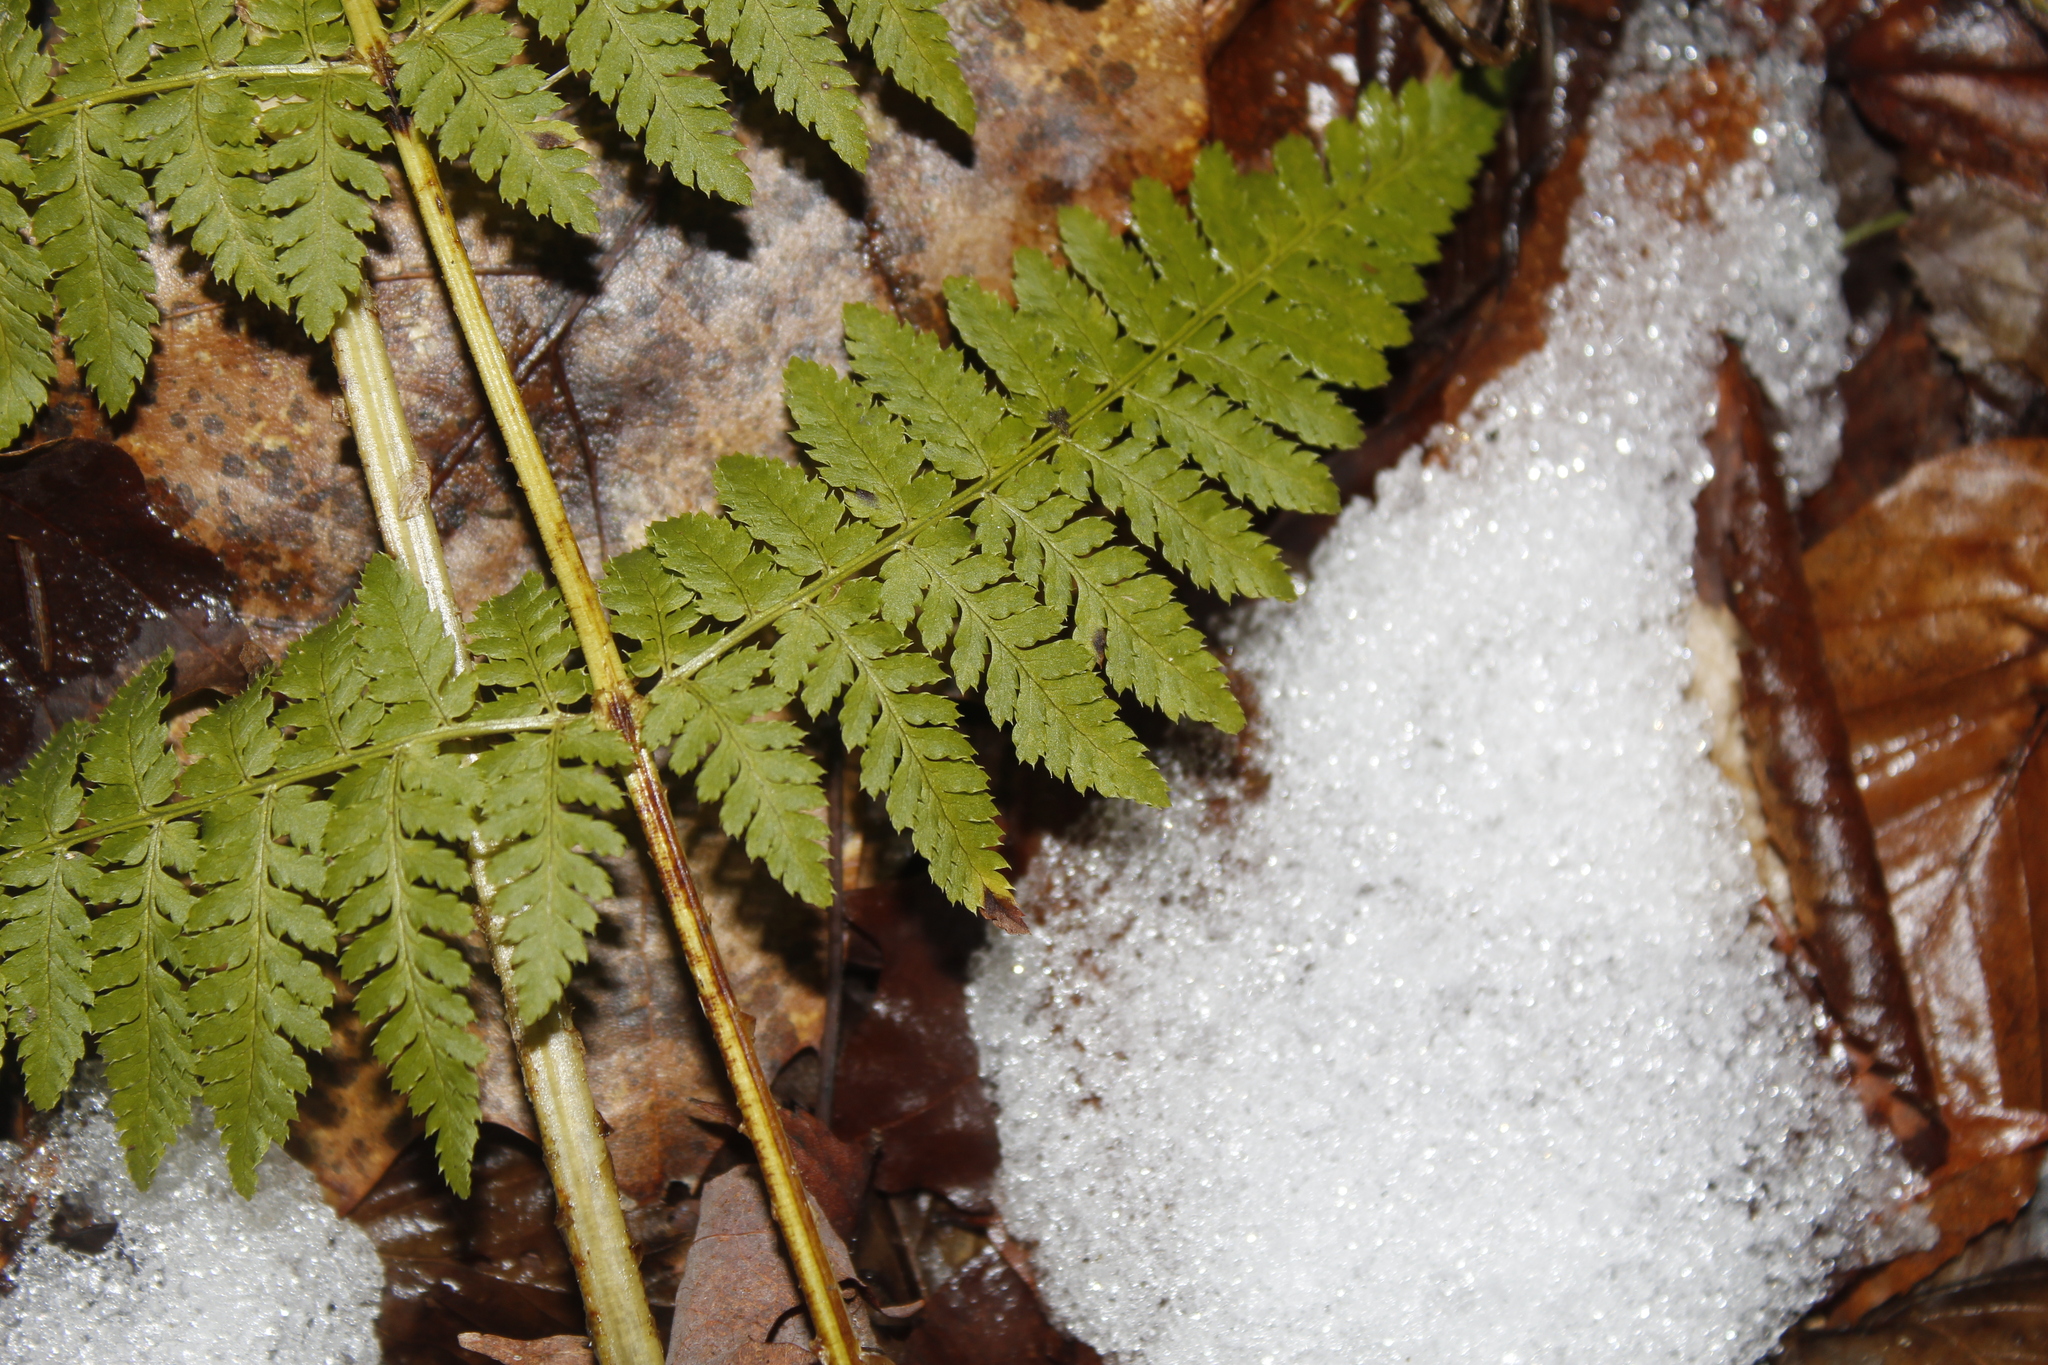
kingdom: Plantae
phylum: Tracheophyta
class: Polypodiopsida
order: Polypodiales
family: Dryopteridaceae
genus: Dryopteris
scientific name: Dryopteris intermedia
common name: Evergreen wood fern
